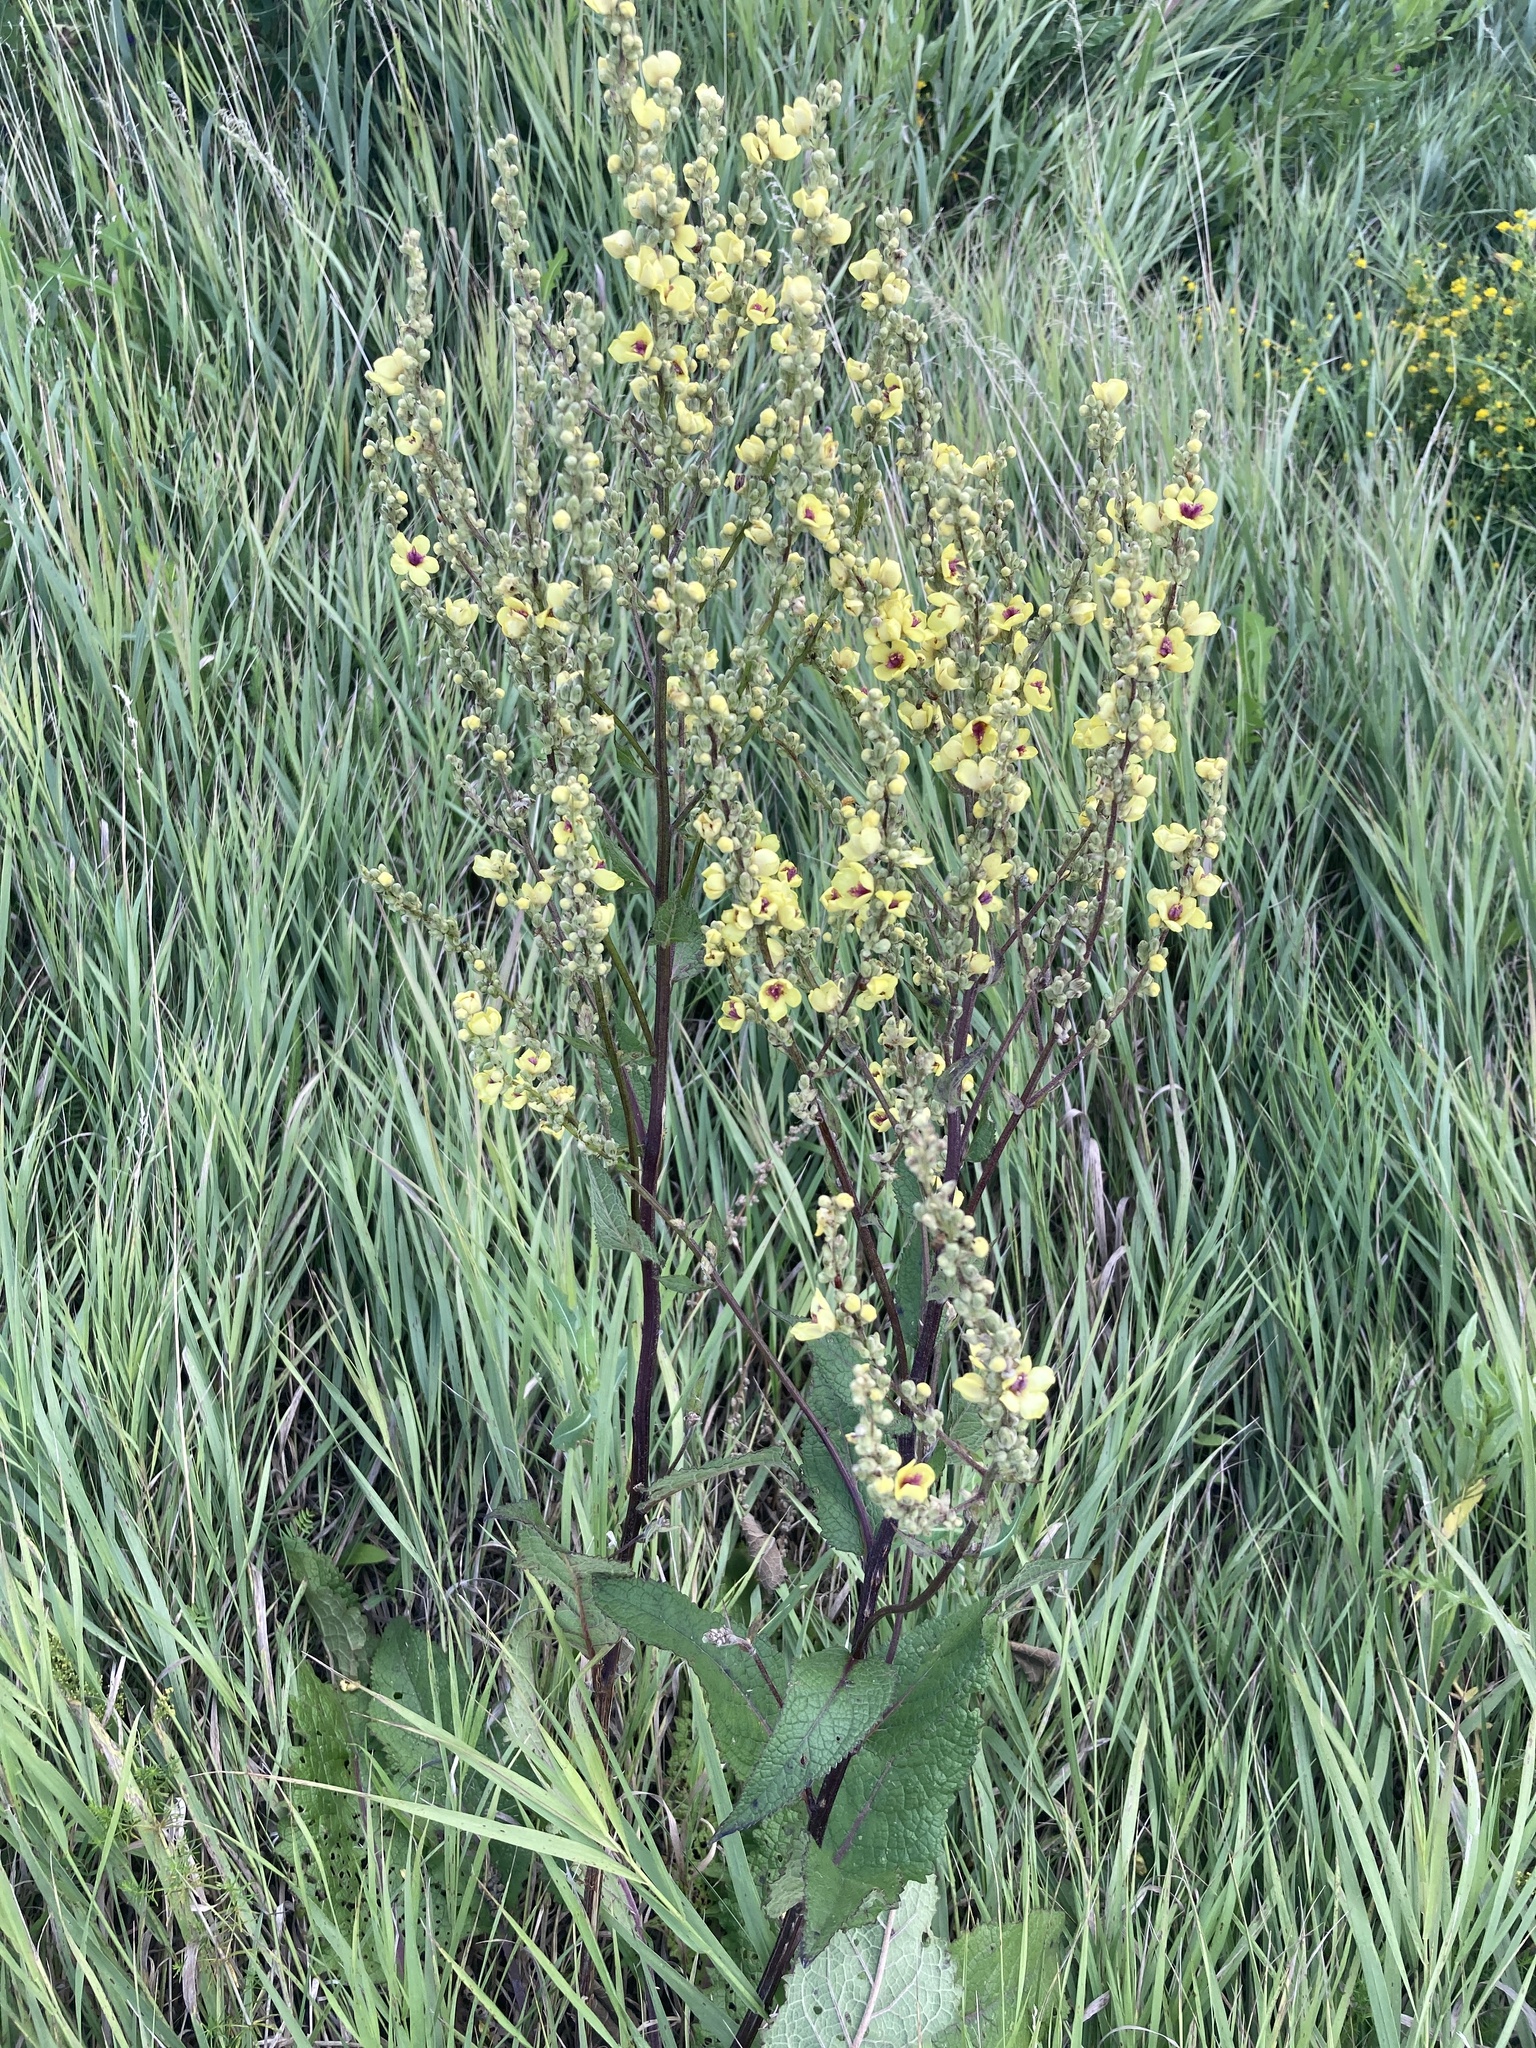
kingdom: Plantae
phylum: Tracheophyta
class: Magnoliopsida
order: Lamiales
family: Scrophulariaceae
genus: Verbascum
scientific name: Verbascum chaixii
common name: Nettle-leaved mullein
